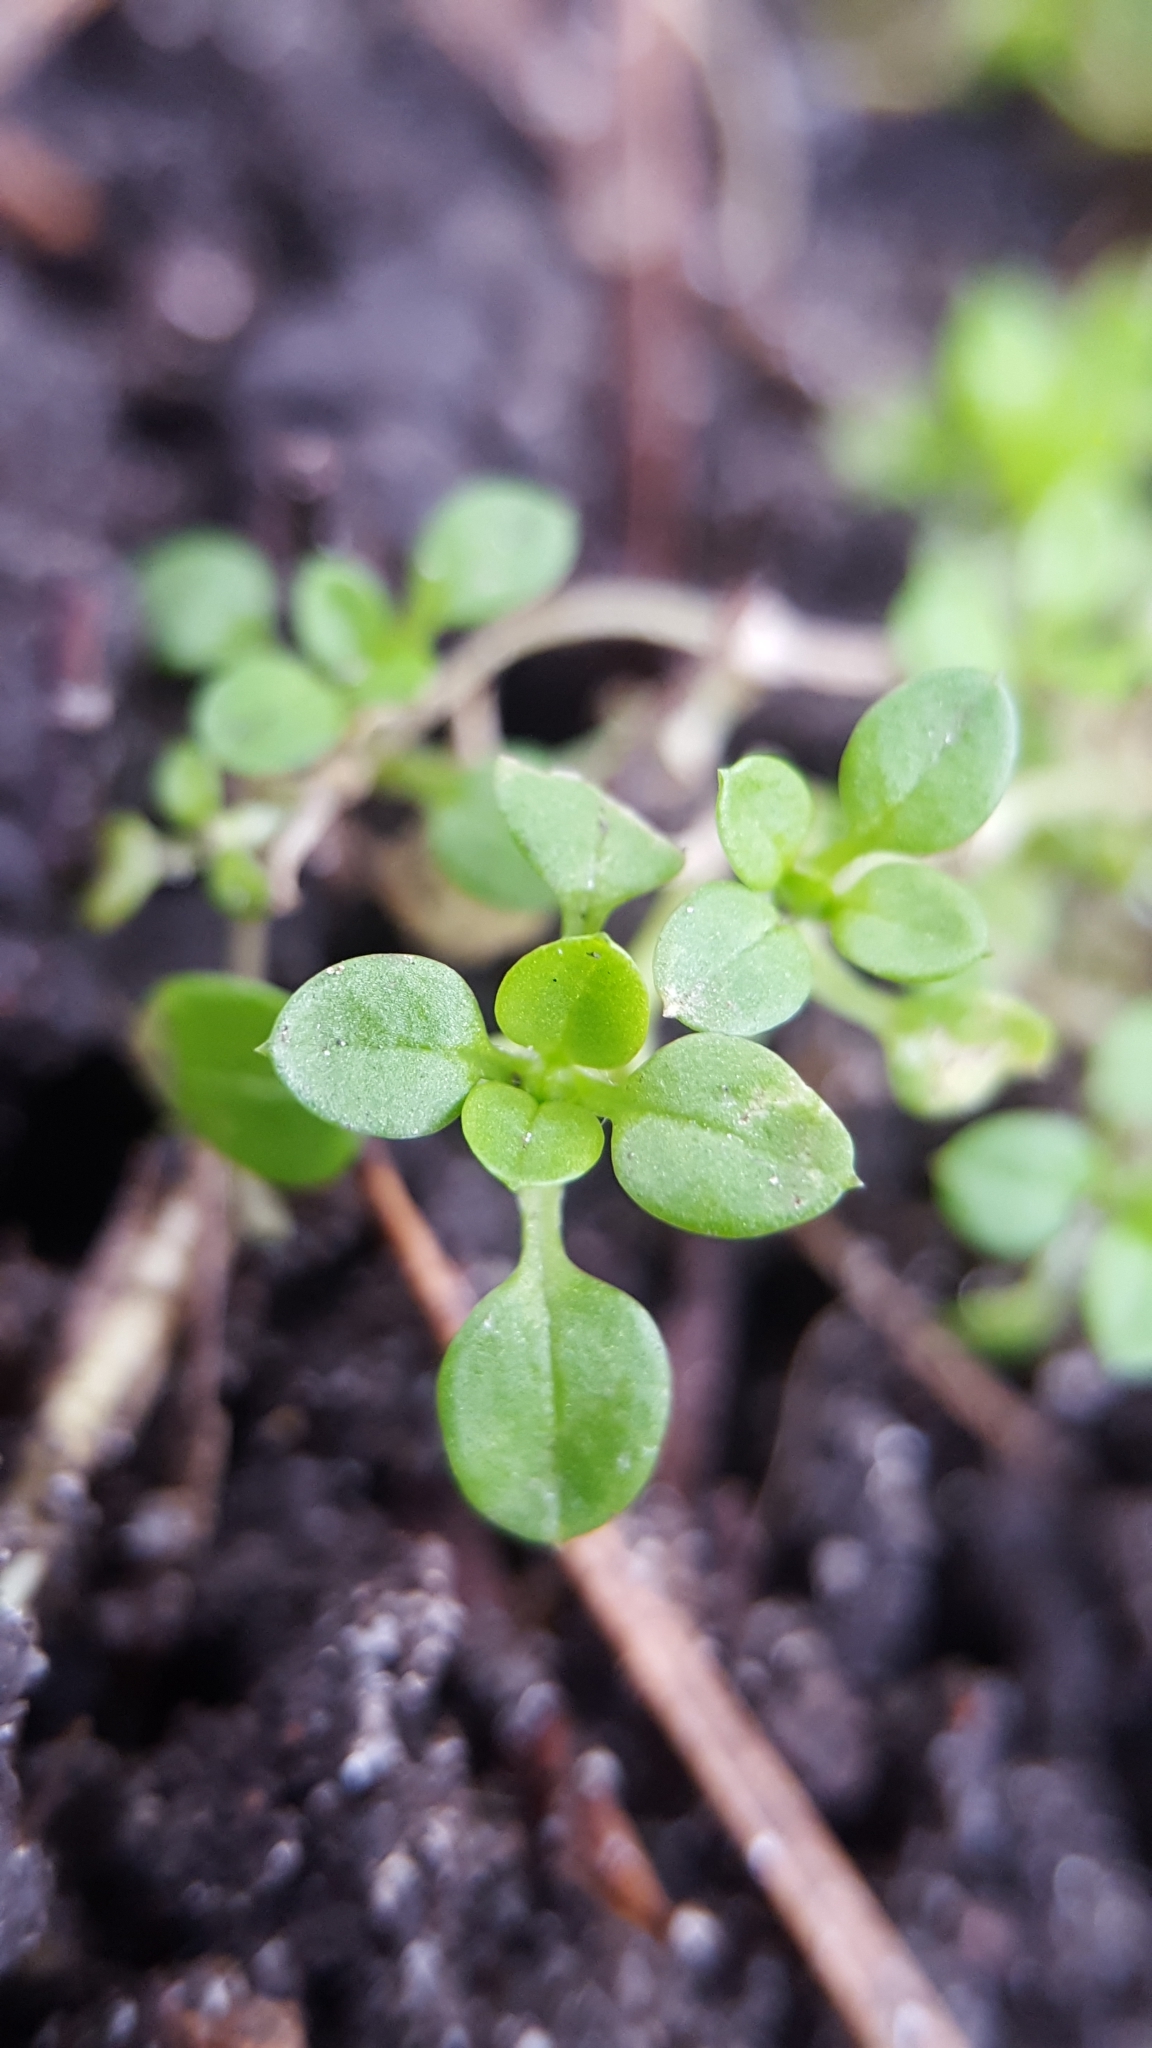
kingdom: Plantae
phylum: Tracheophyta
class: Magnoliopsida
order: Caryophyllales
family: Caryophyllaceae
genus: Stellaria
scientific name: Stellaria media
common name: Common chickweed
